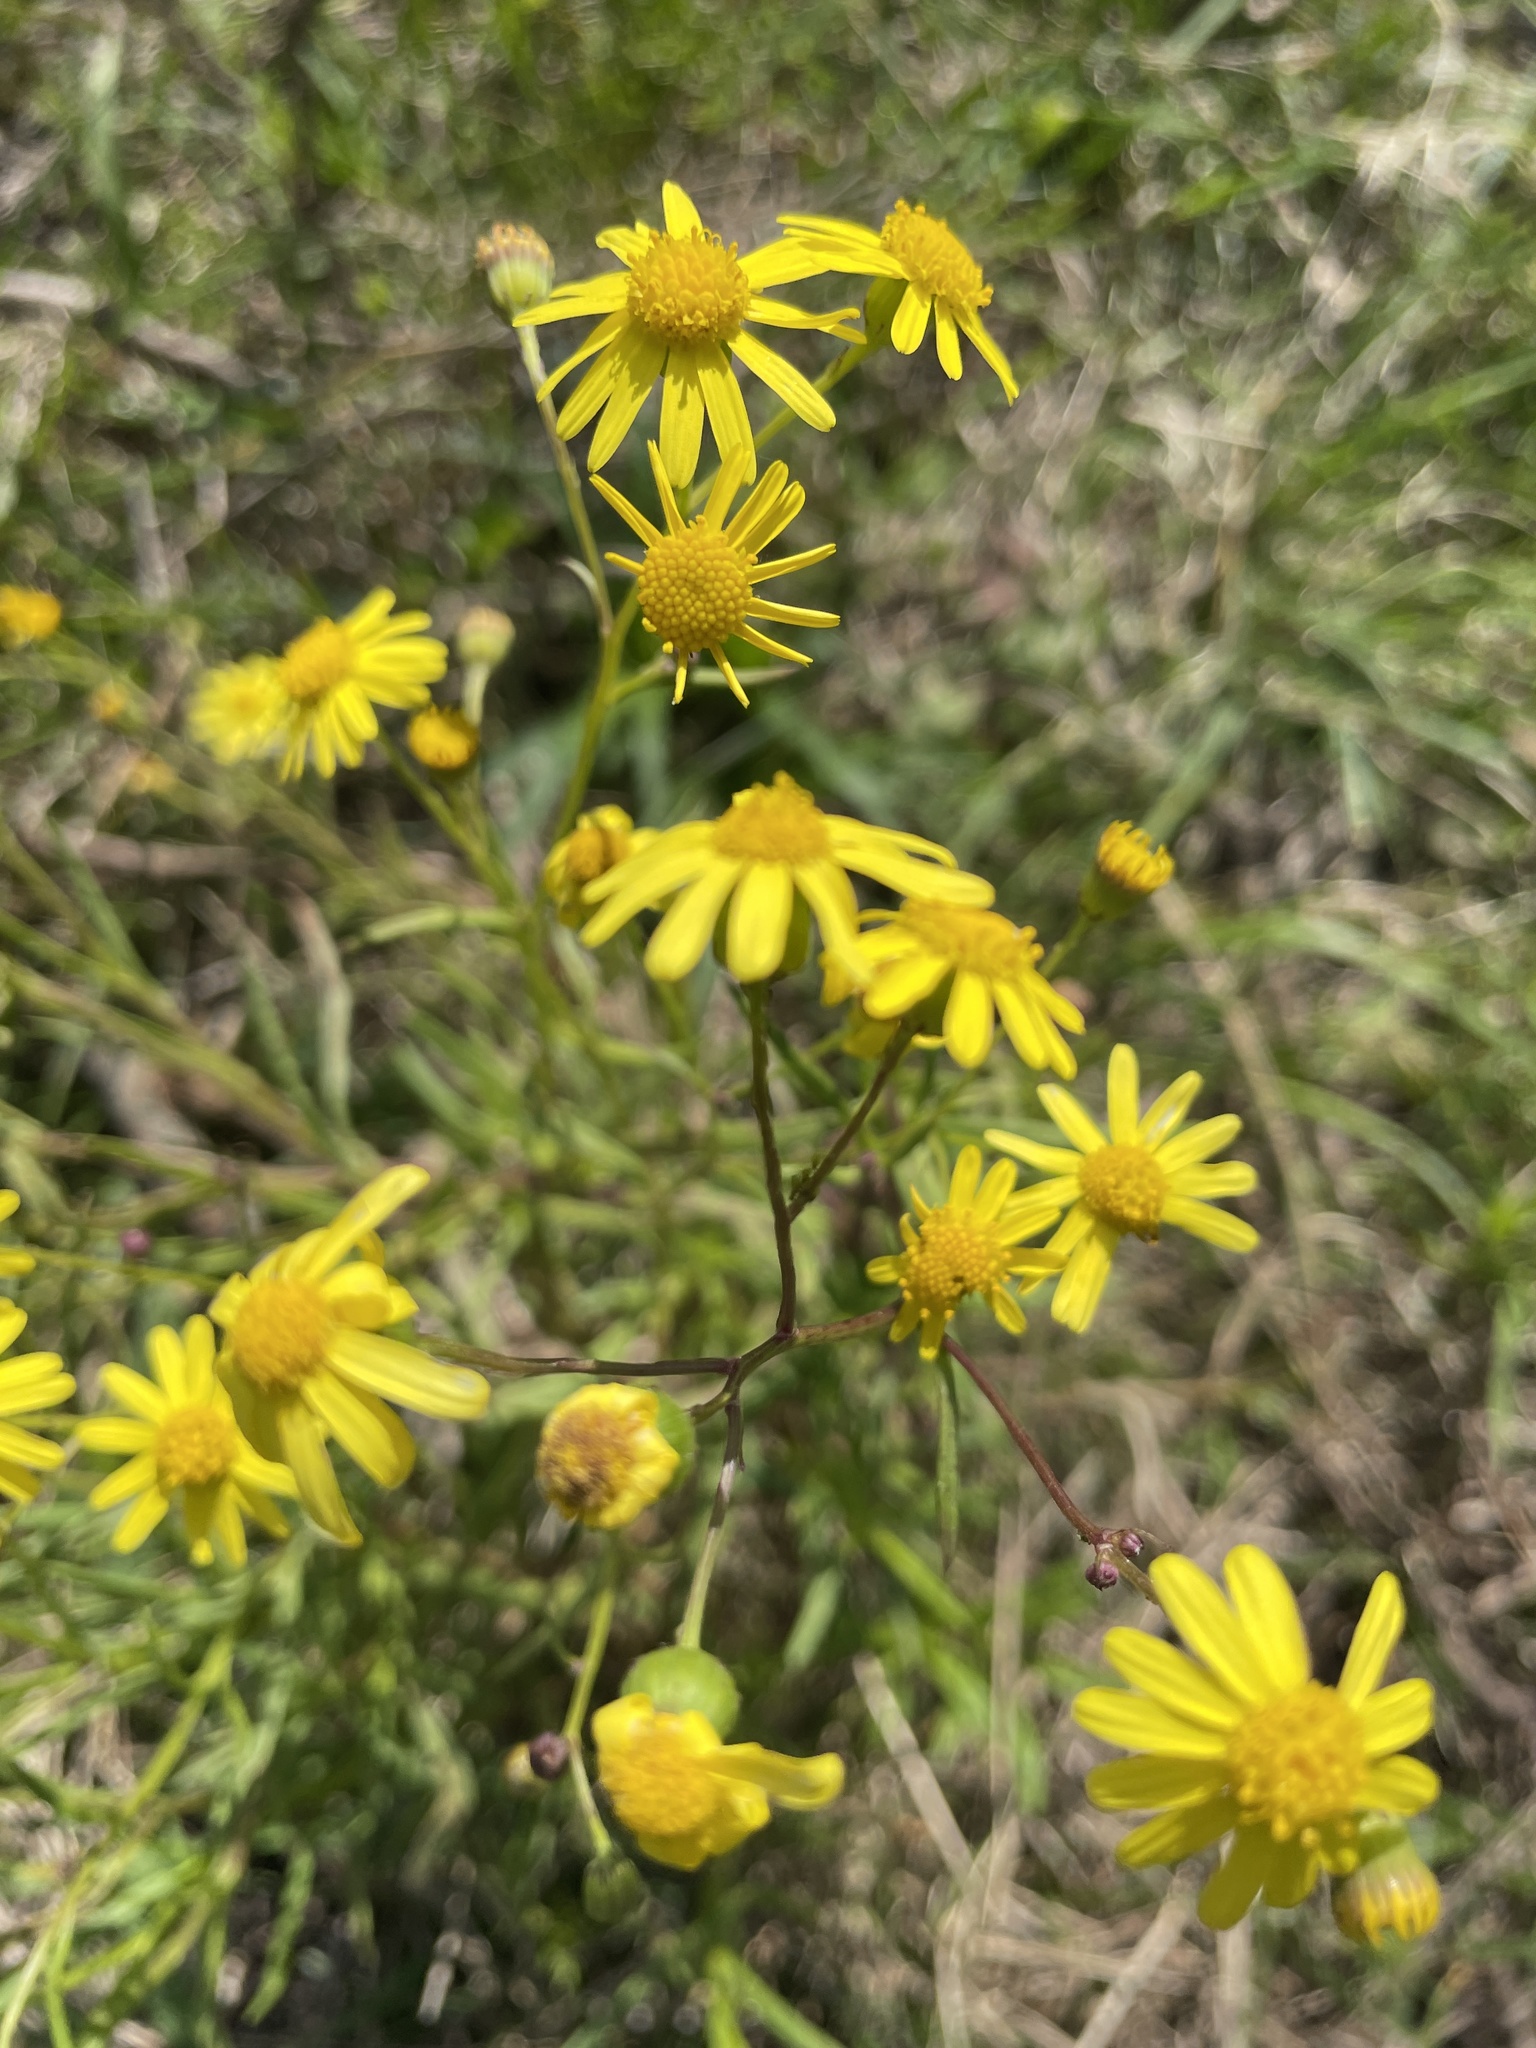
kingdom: Plantae
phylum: Tracheophyta
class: Magnoliopsida
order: Asterales
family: Asteraceae
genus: Senecio
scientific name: Senecio madagascariensis
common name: Madagascar ragwort
